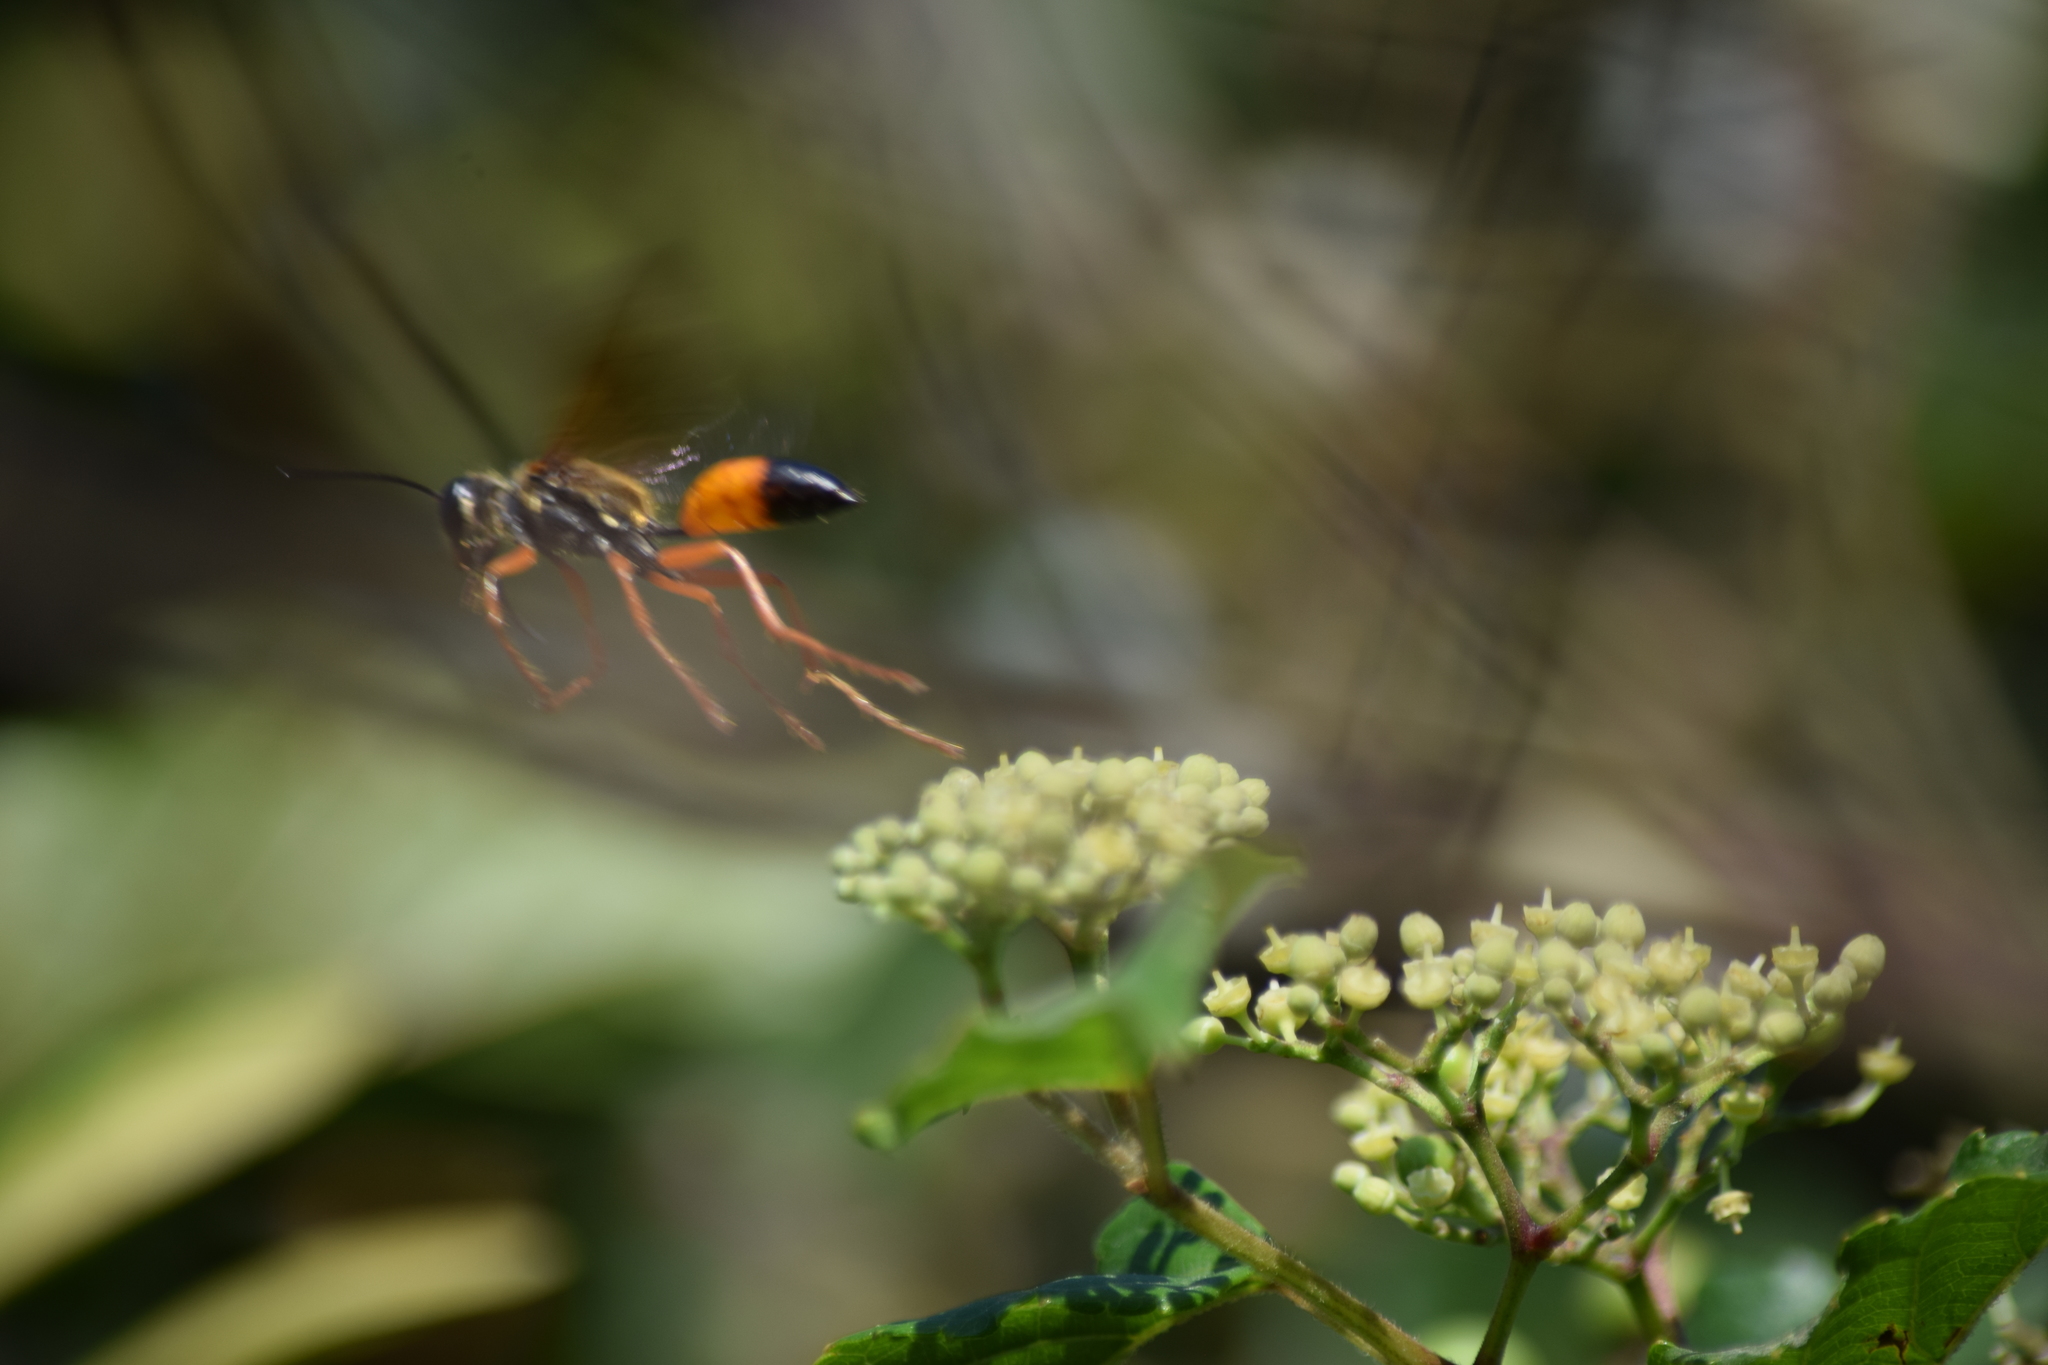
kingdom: Animalia
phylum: Arthropoda
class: Insecta
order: Hymenoptera
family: Sphecidae
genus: Sphex
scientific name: Sphex ichneumoneus
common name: Great golden digger wasp
